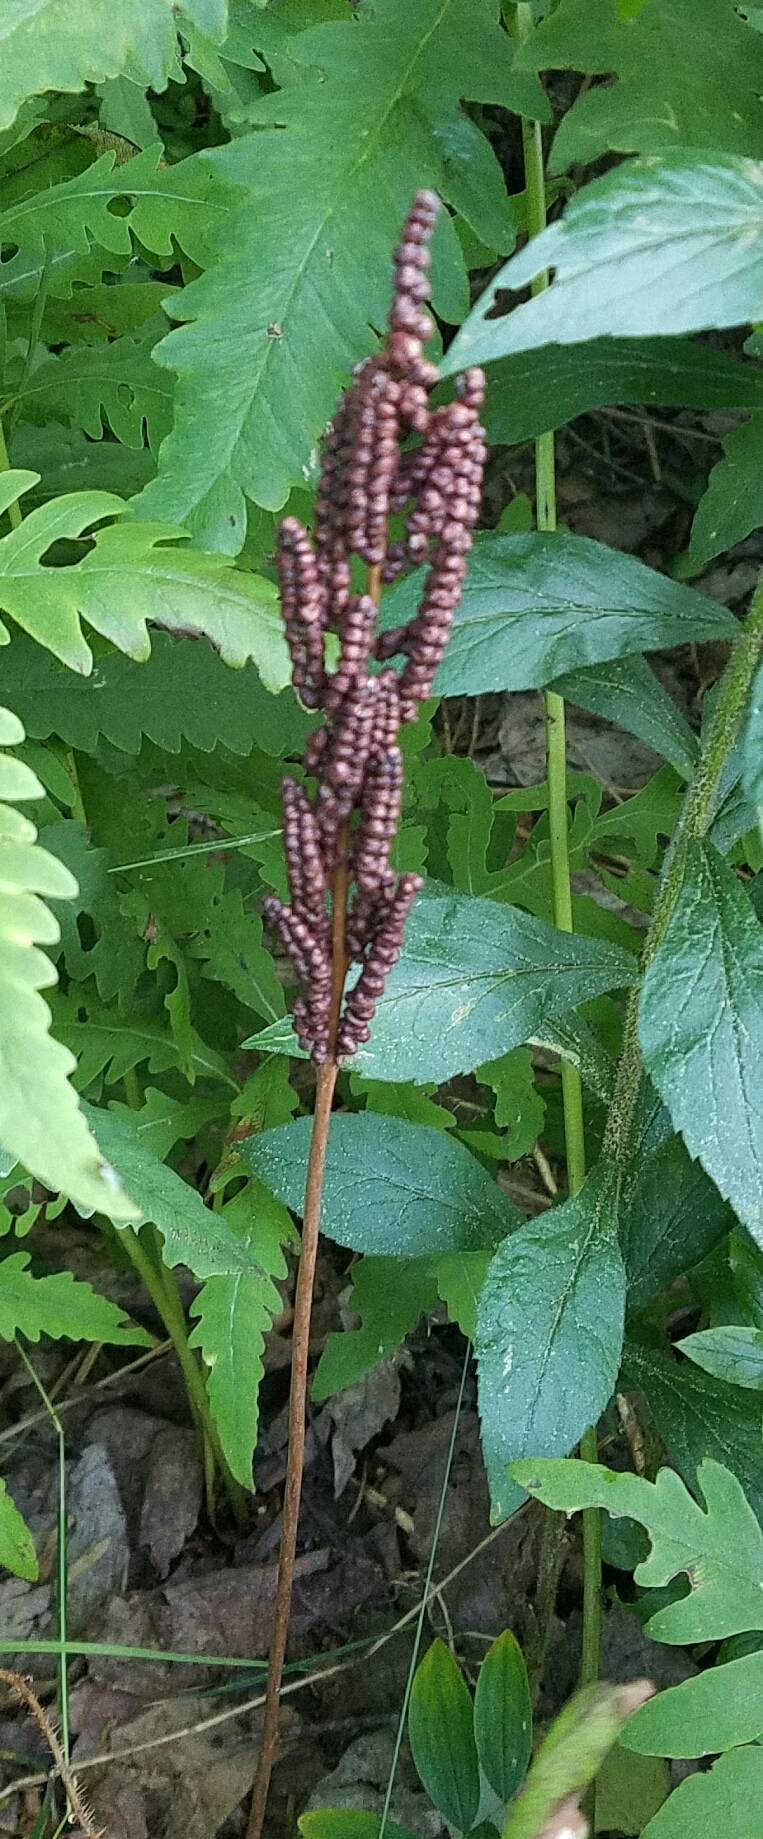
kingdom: Plantae
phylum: Tracheophyta
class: Polypodiopsida
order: Polypodiales
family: Onocleaceae
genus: Onoclea
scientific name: Onoclea sensibilis
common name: Sensitive fern
